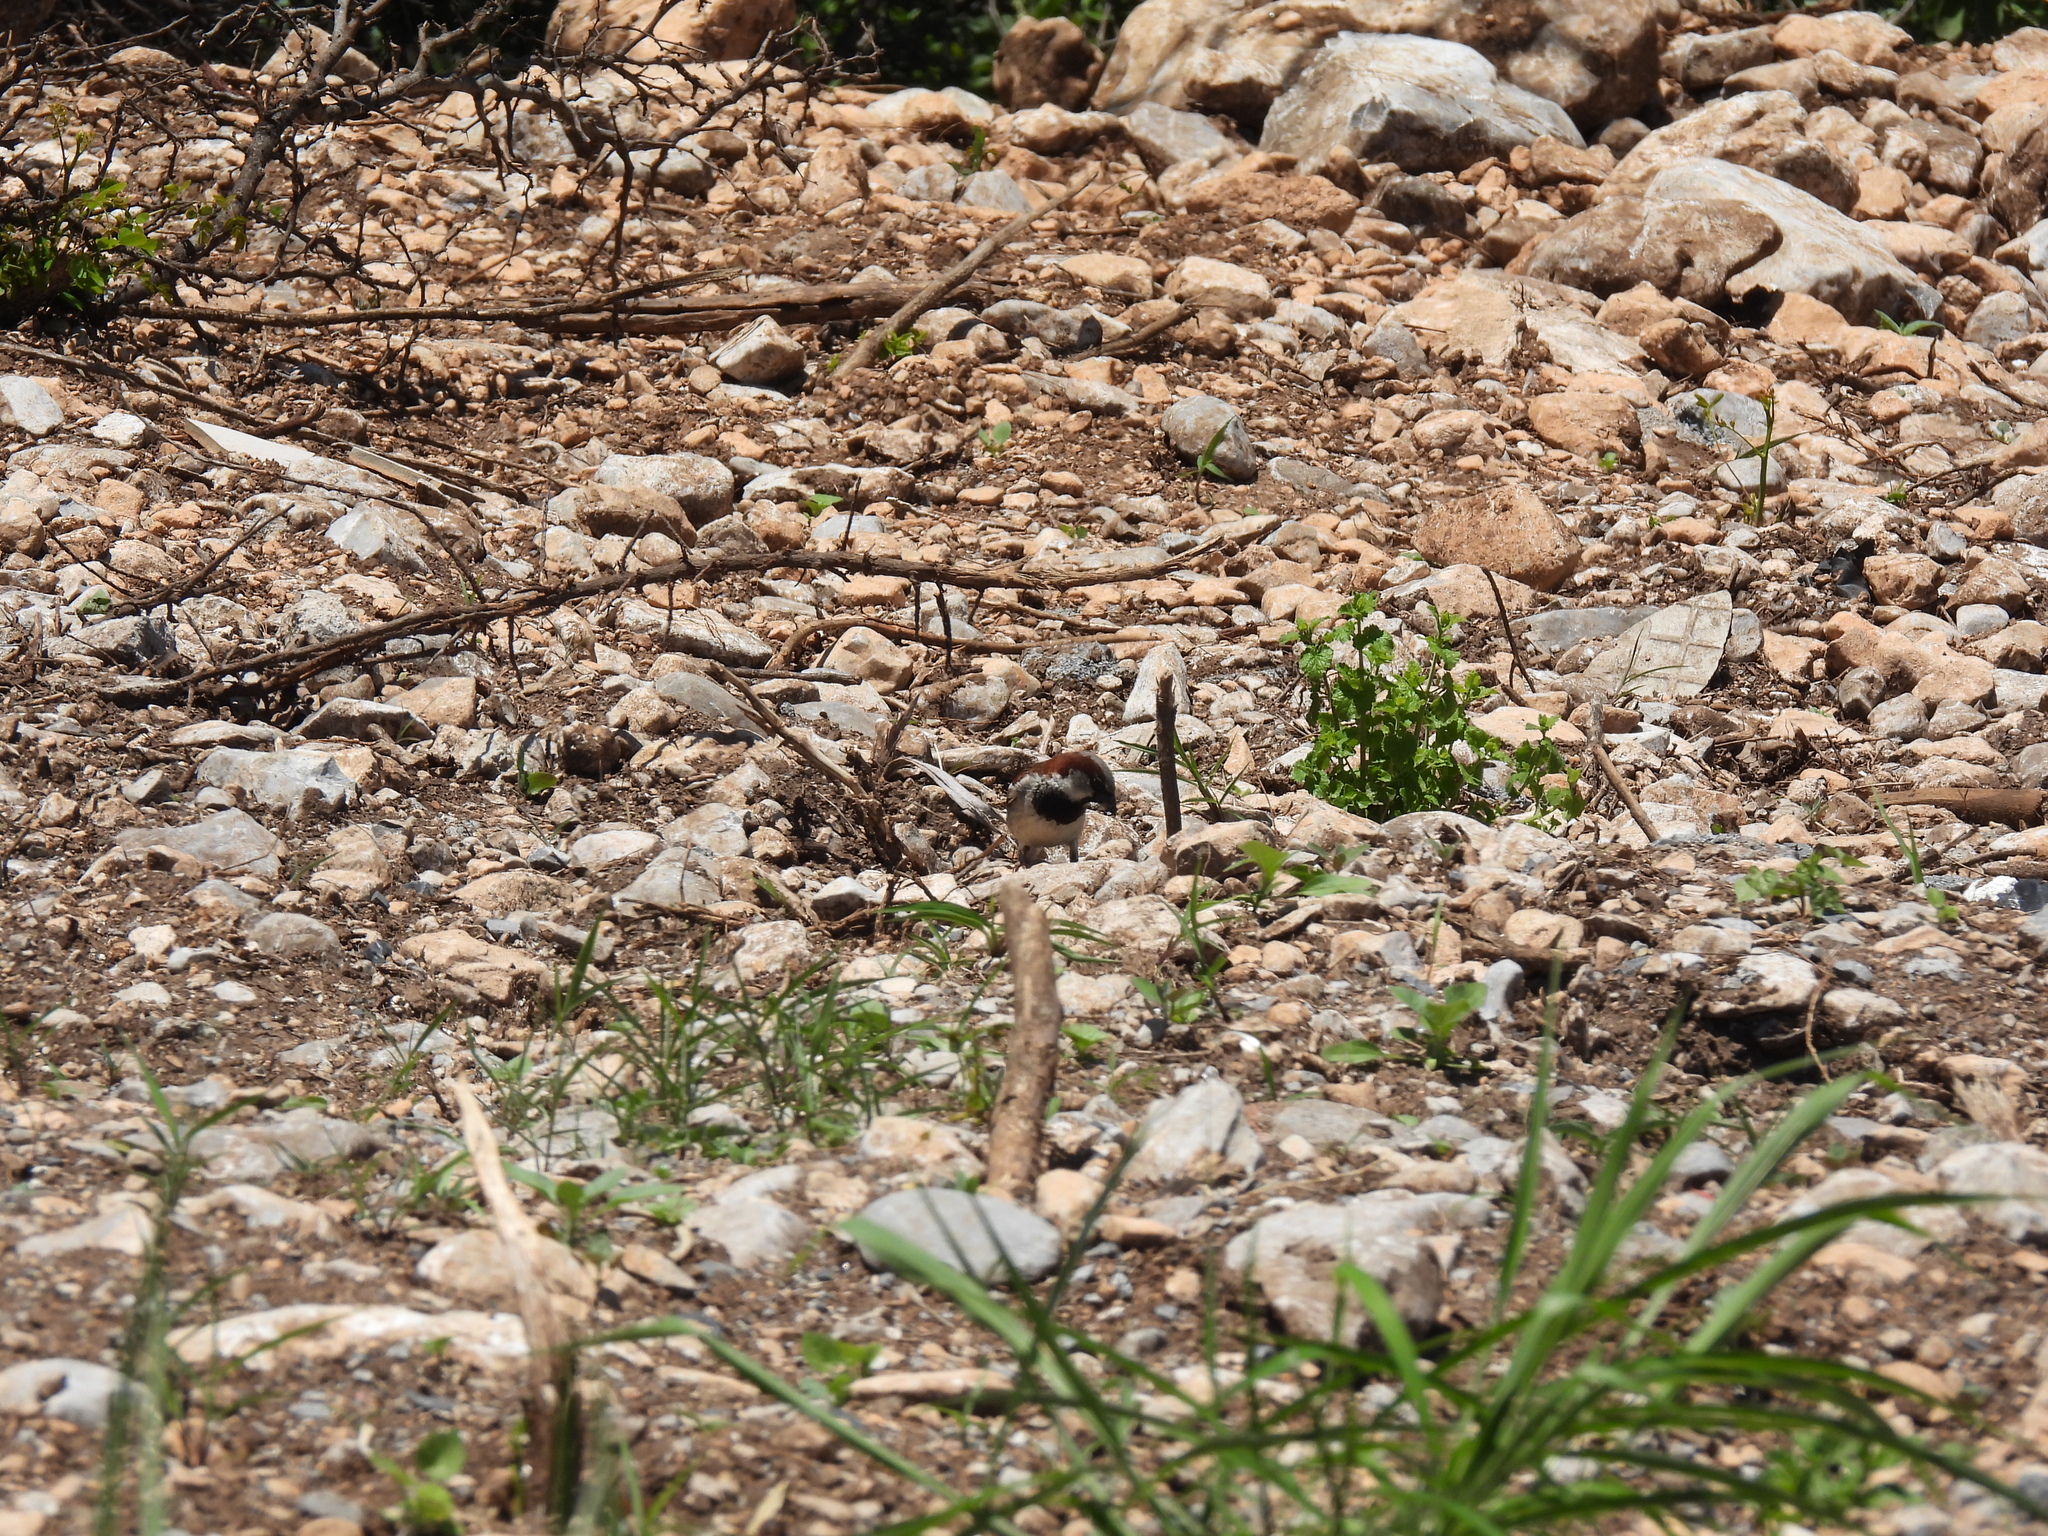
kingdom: Animalia
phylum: Chordata
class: Aves
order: Passeriformes
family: Passeridae
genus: Passer
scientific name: Passer domesticus
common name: House sparrow
